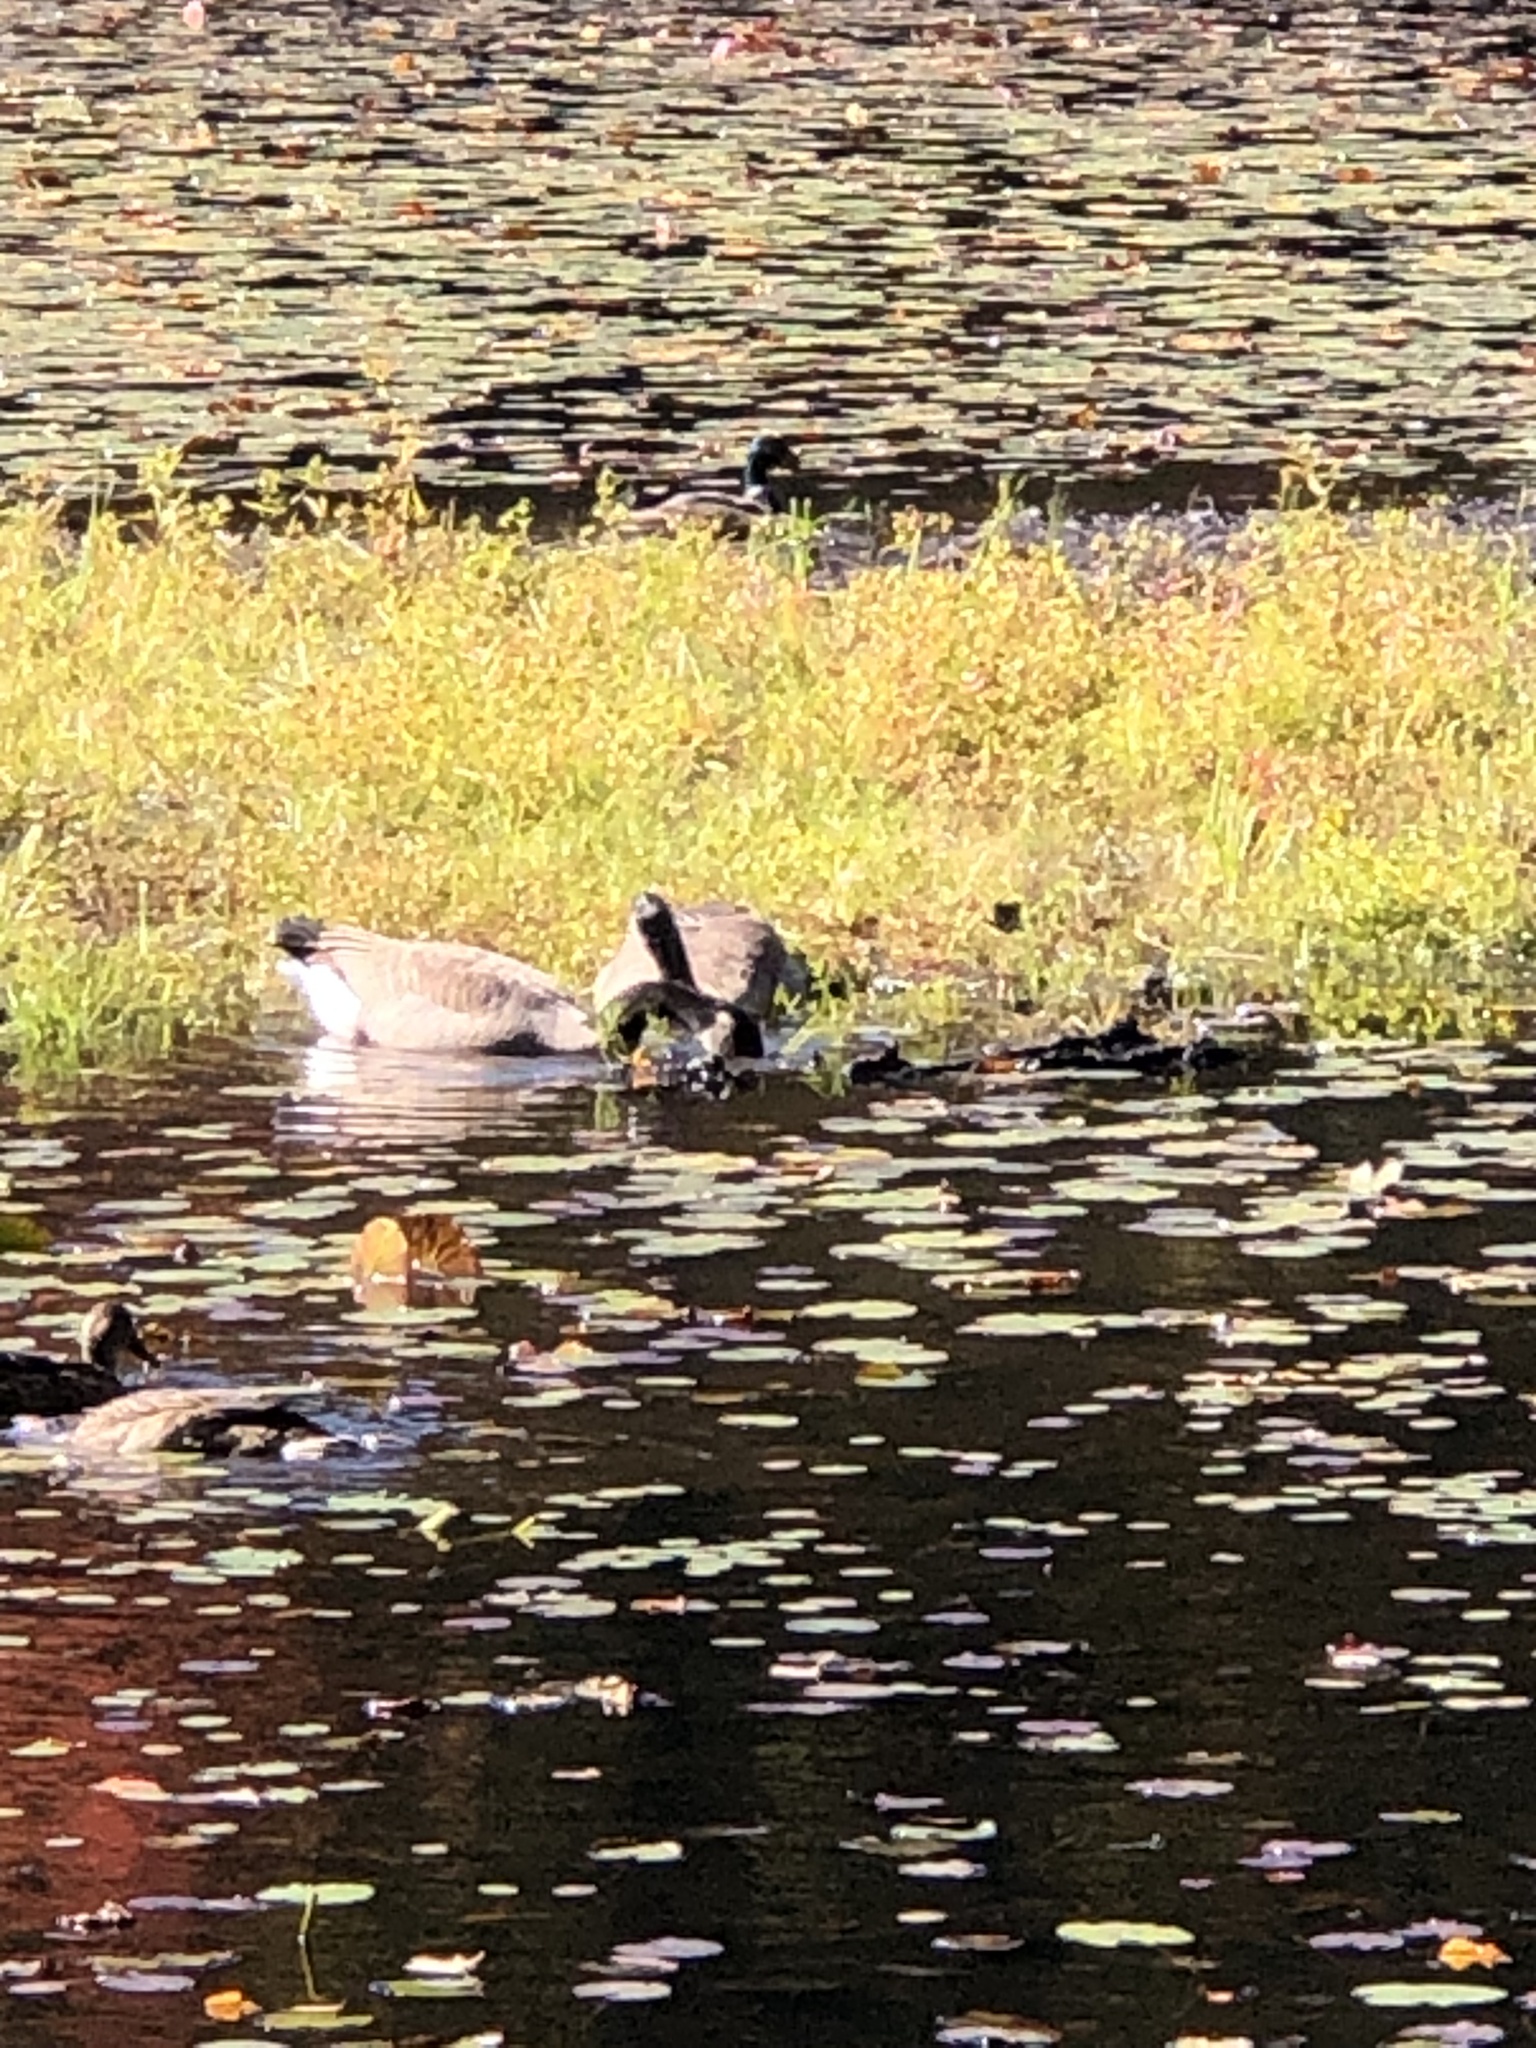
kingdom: Animalia
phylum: Chordata
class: Aves
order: Anseriformes
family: Anatidae
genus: Branta
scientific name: Branta canadensis
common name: Canada goose
